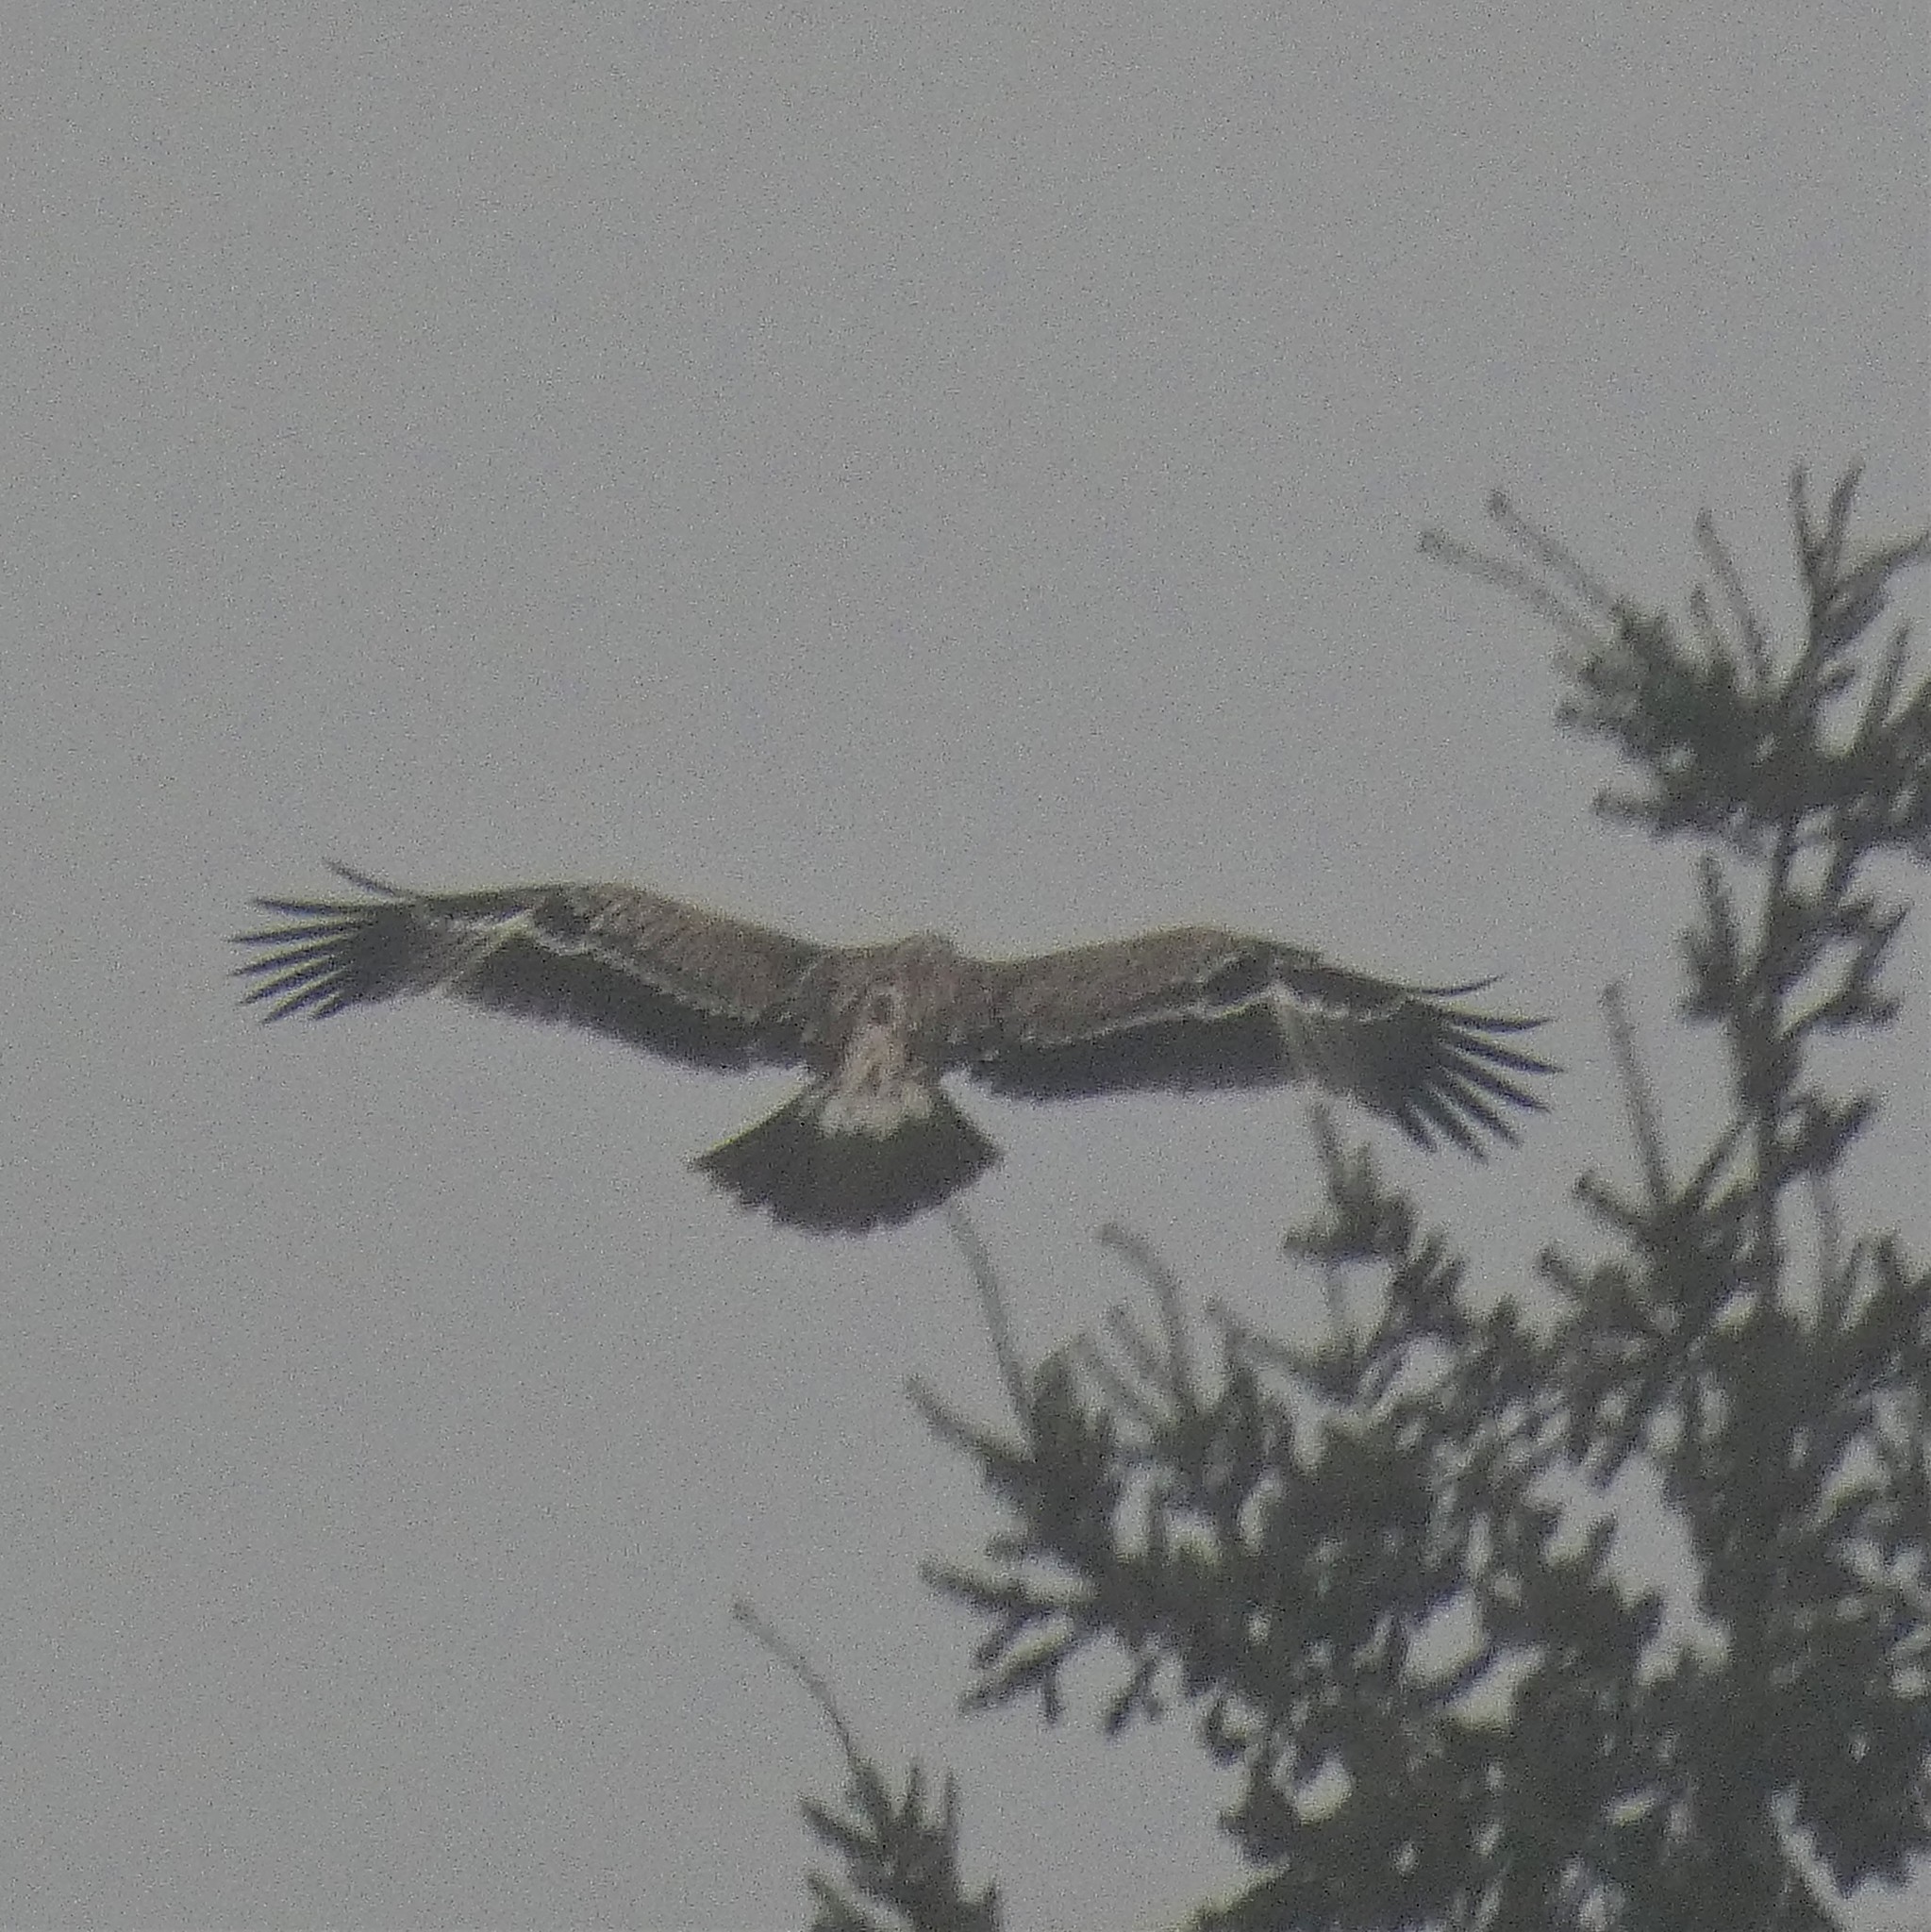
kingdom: Animalia
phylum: Chordata
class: Aves
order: Accipitriformes
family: Accipitridae
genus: Aquila
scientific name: Aquila heliaca
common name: Eastern imperial eagle
